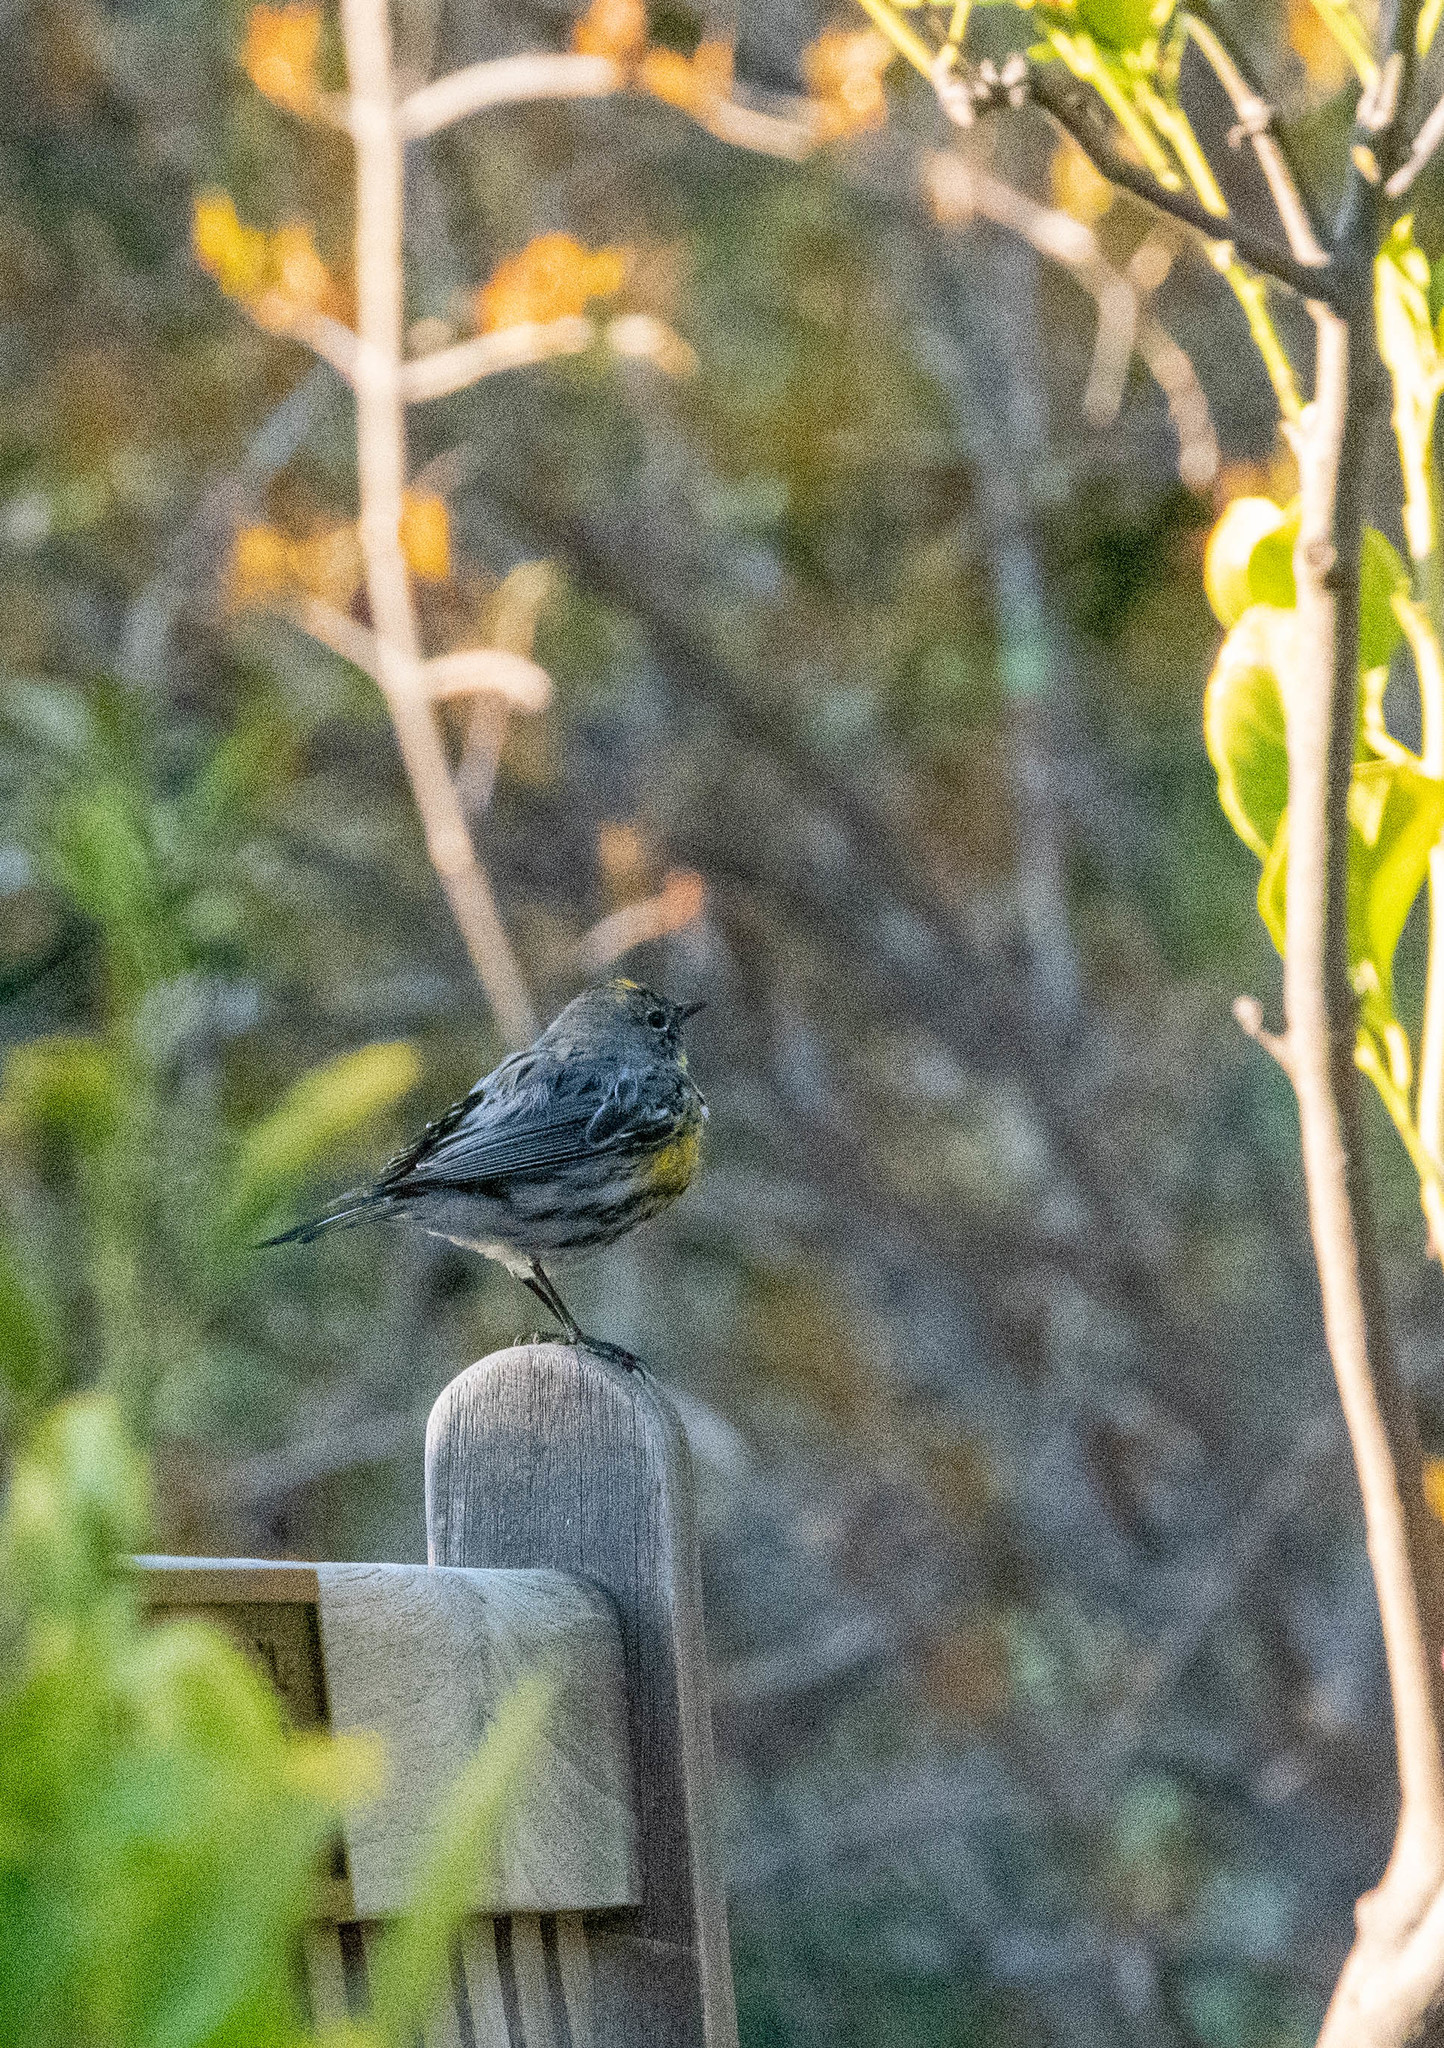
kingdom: Animalia
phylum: Chordata
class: Aves
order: Passeriformes
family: Parulidae
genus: Setophaga
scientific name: Setophaga auduboni
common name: Audubon's warbler
